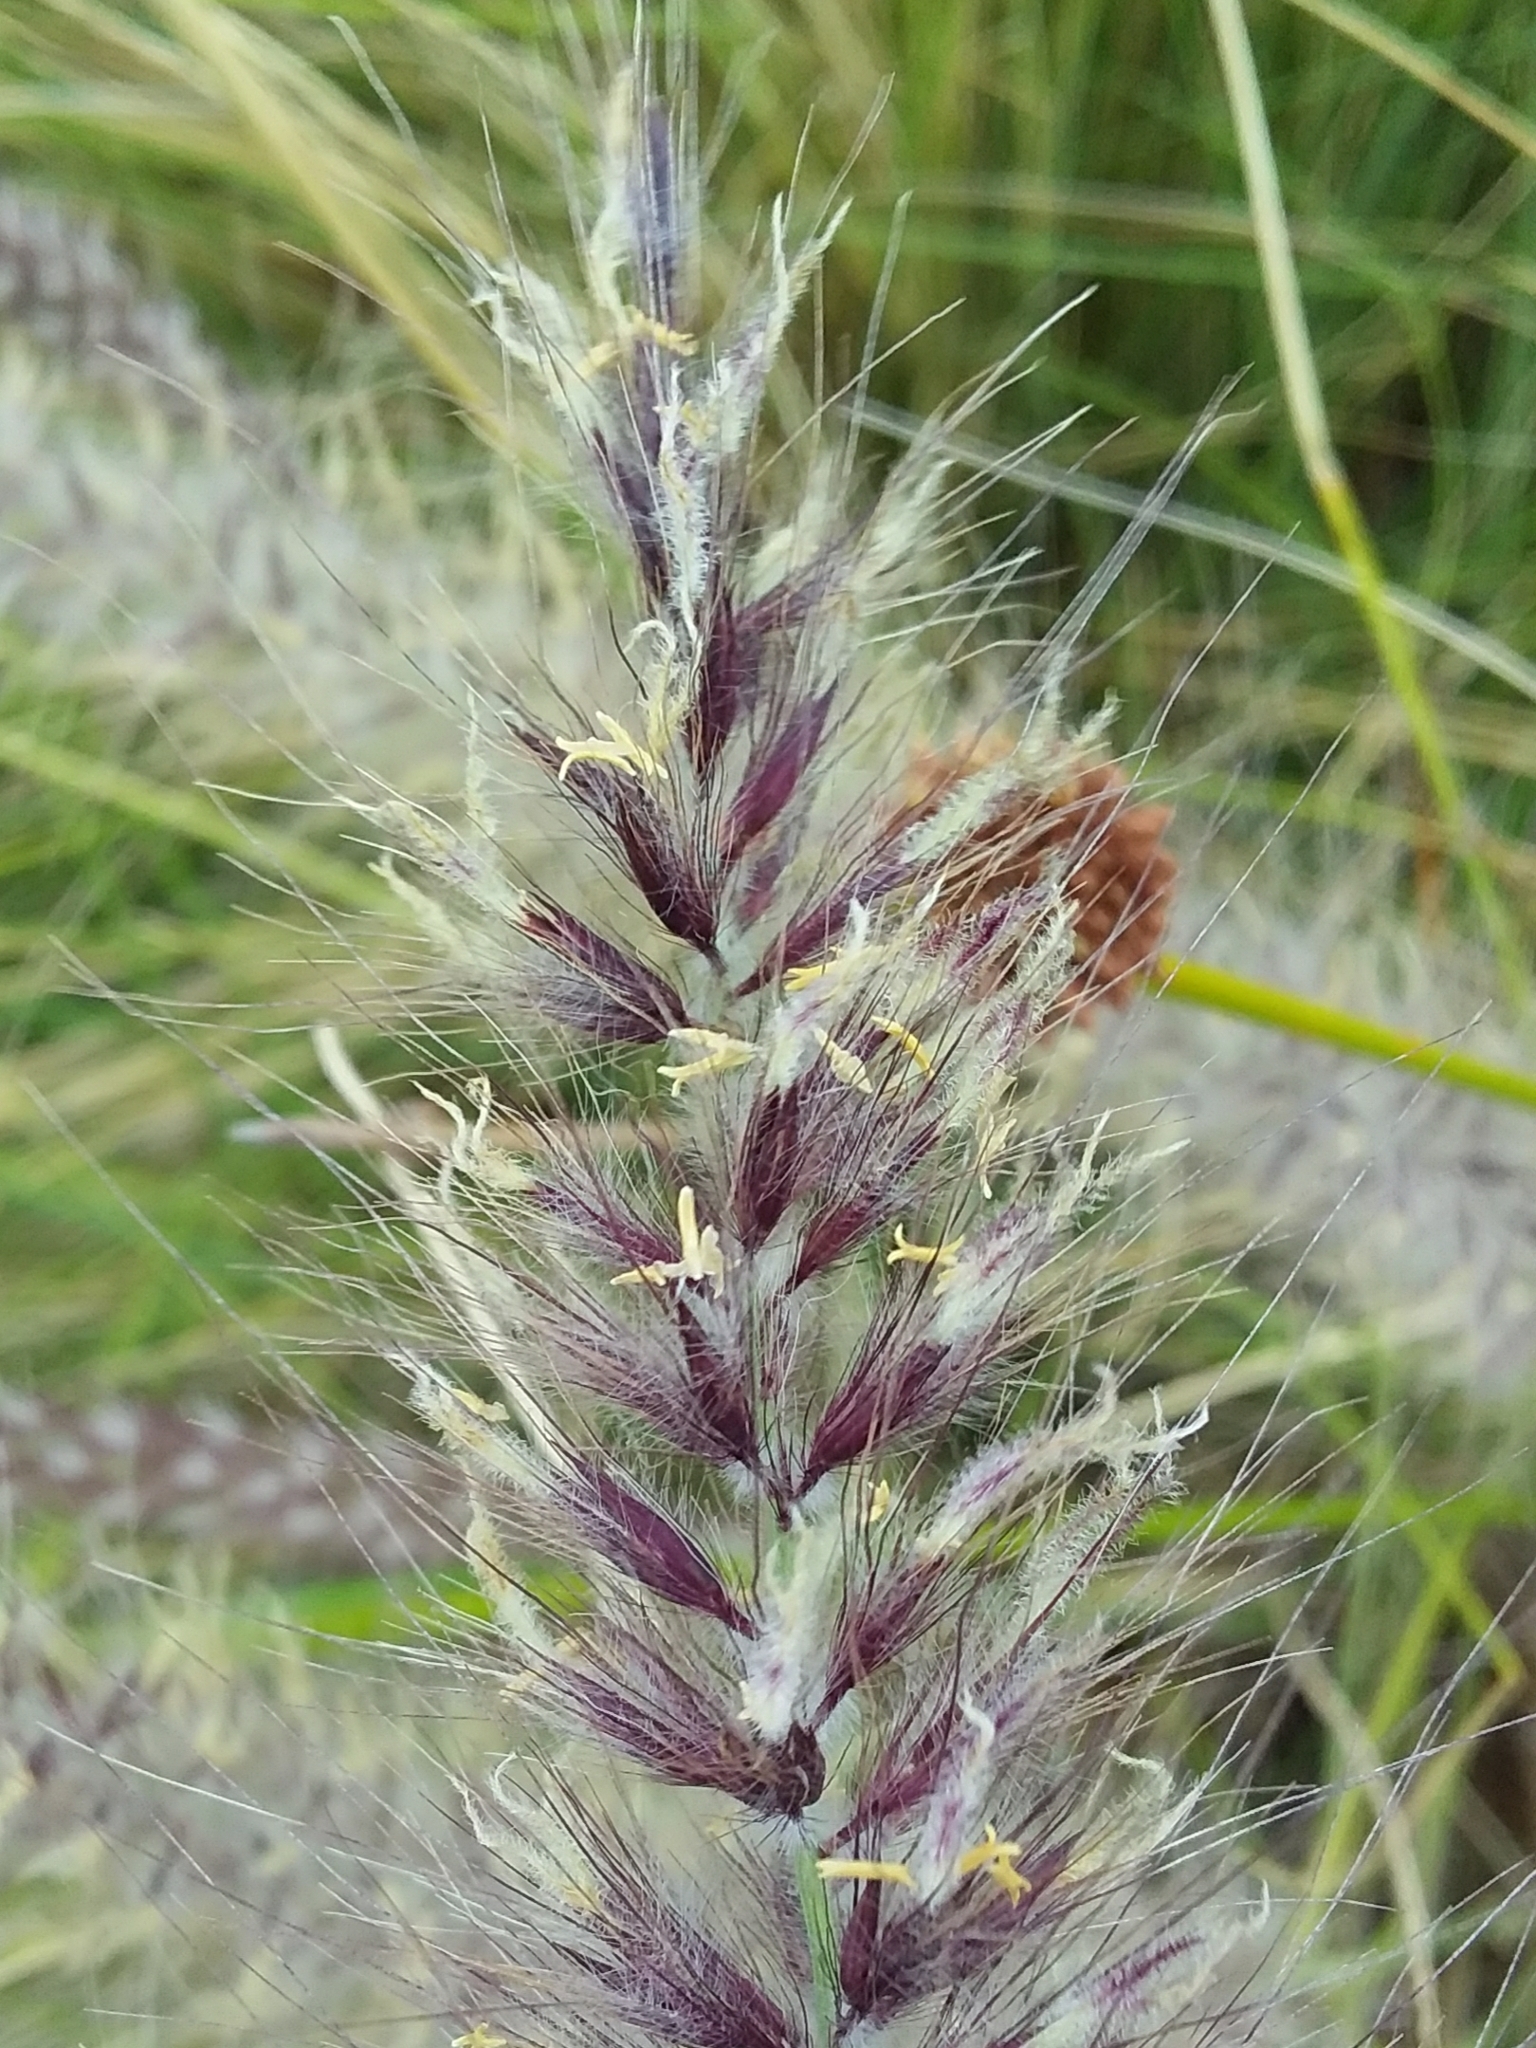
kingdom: Plantae
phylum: Tracheophyta
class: Liliopsida
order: Poales
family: Poaceae
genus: Cenchrus
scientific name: Cenchrus setaceus
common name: Crimson fountaingrass
